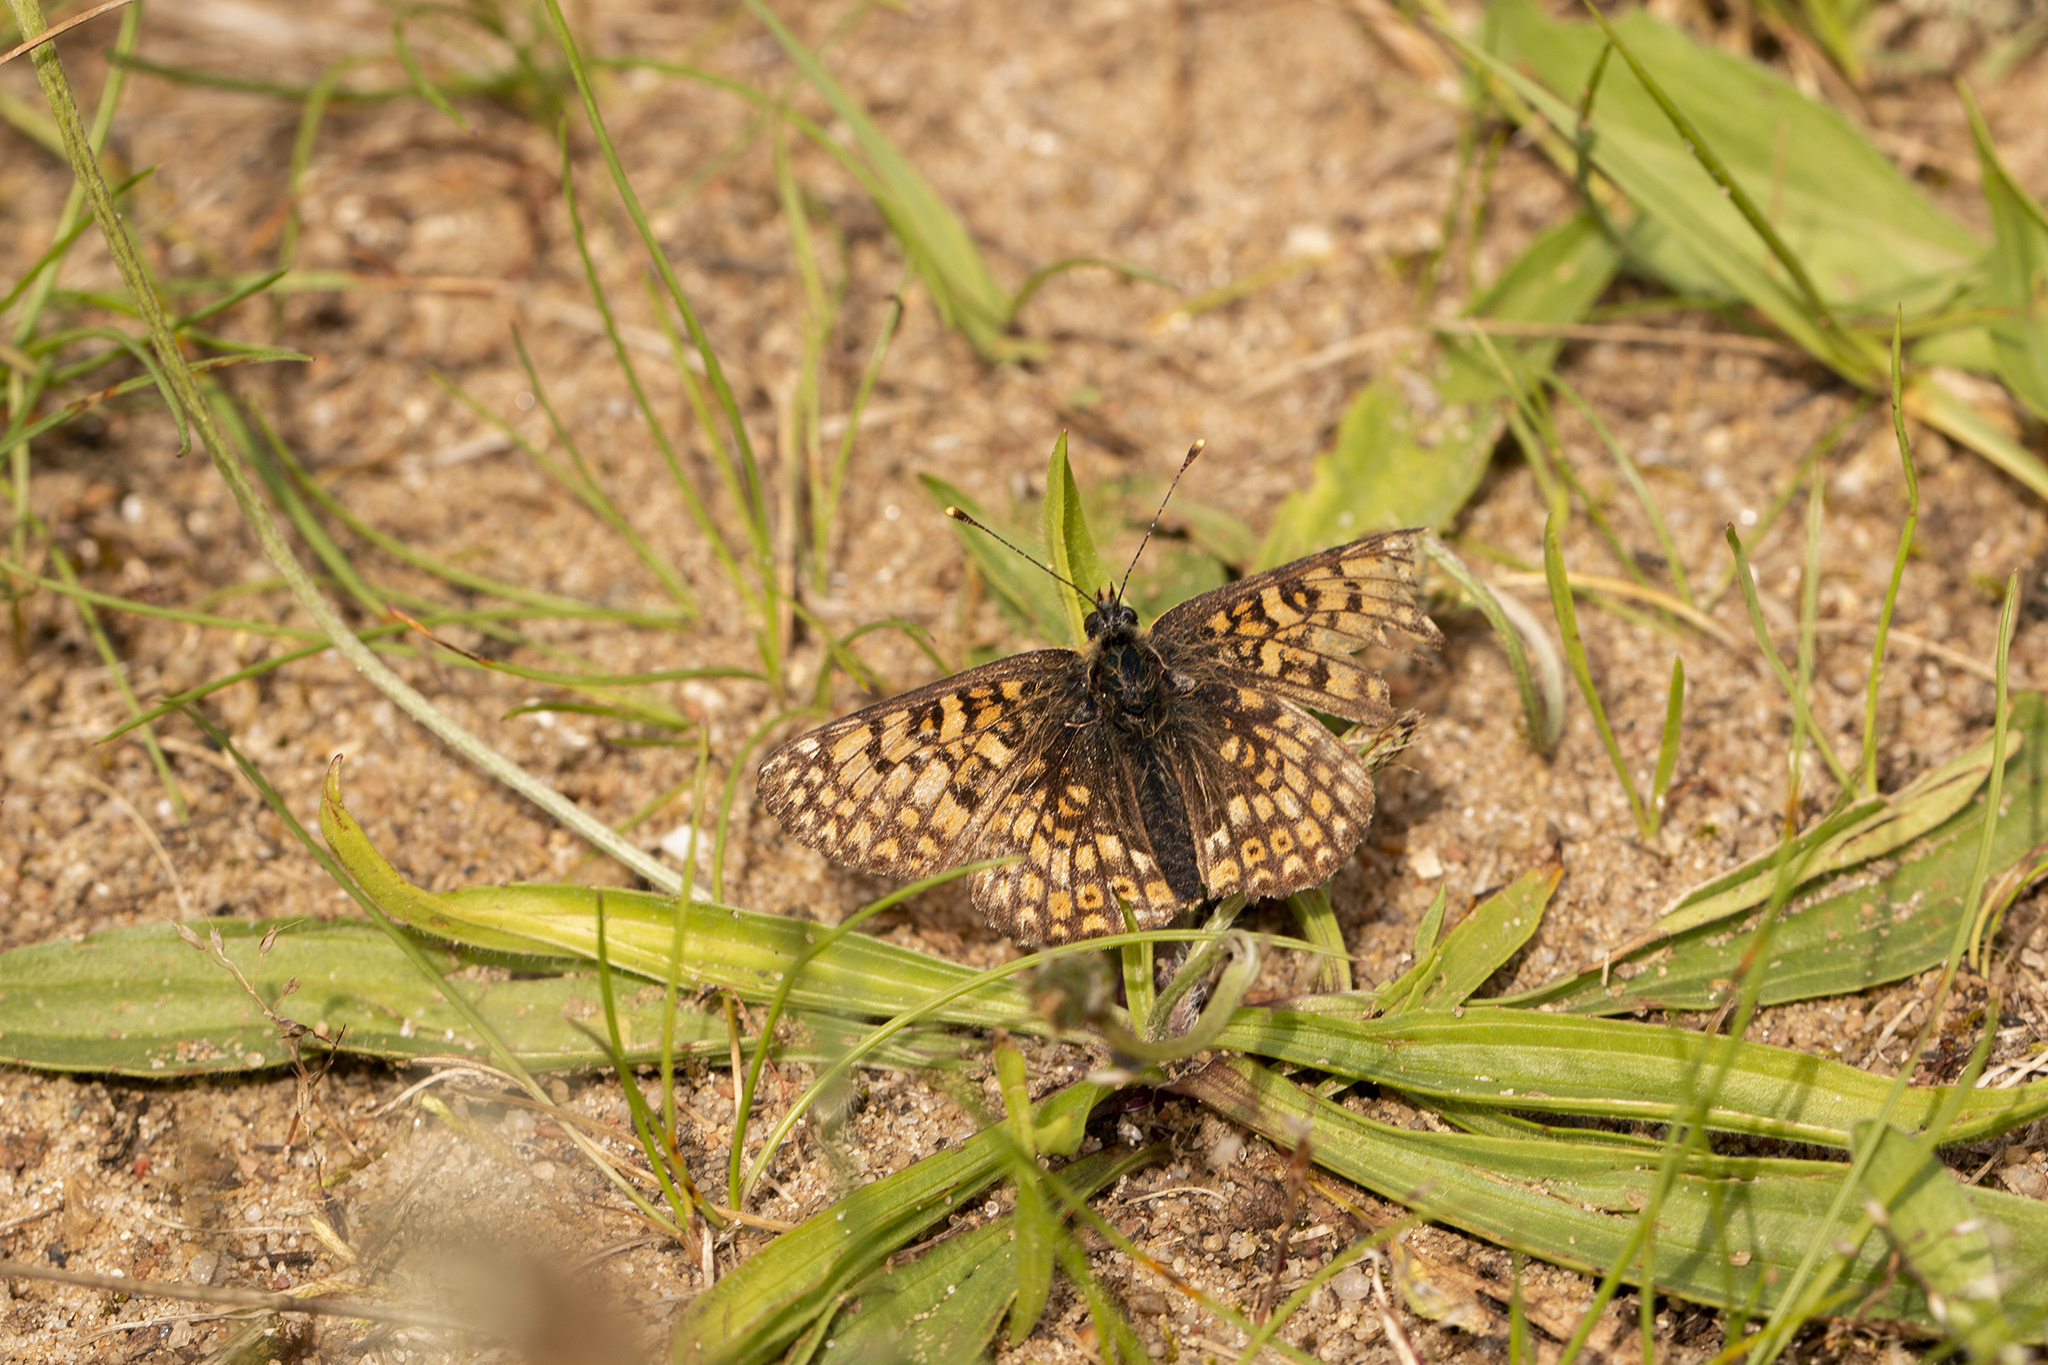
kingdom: Animalia
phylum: Arthropoda
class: Insecta
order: Lepidoptera
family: Nymphalidae
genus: Melitaea
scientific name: Melitaea cinxia
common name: Glanville fritillary
